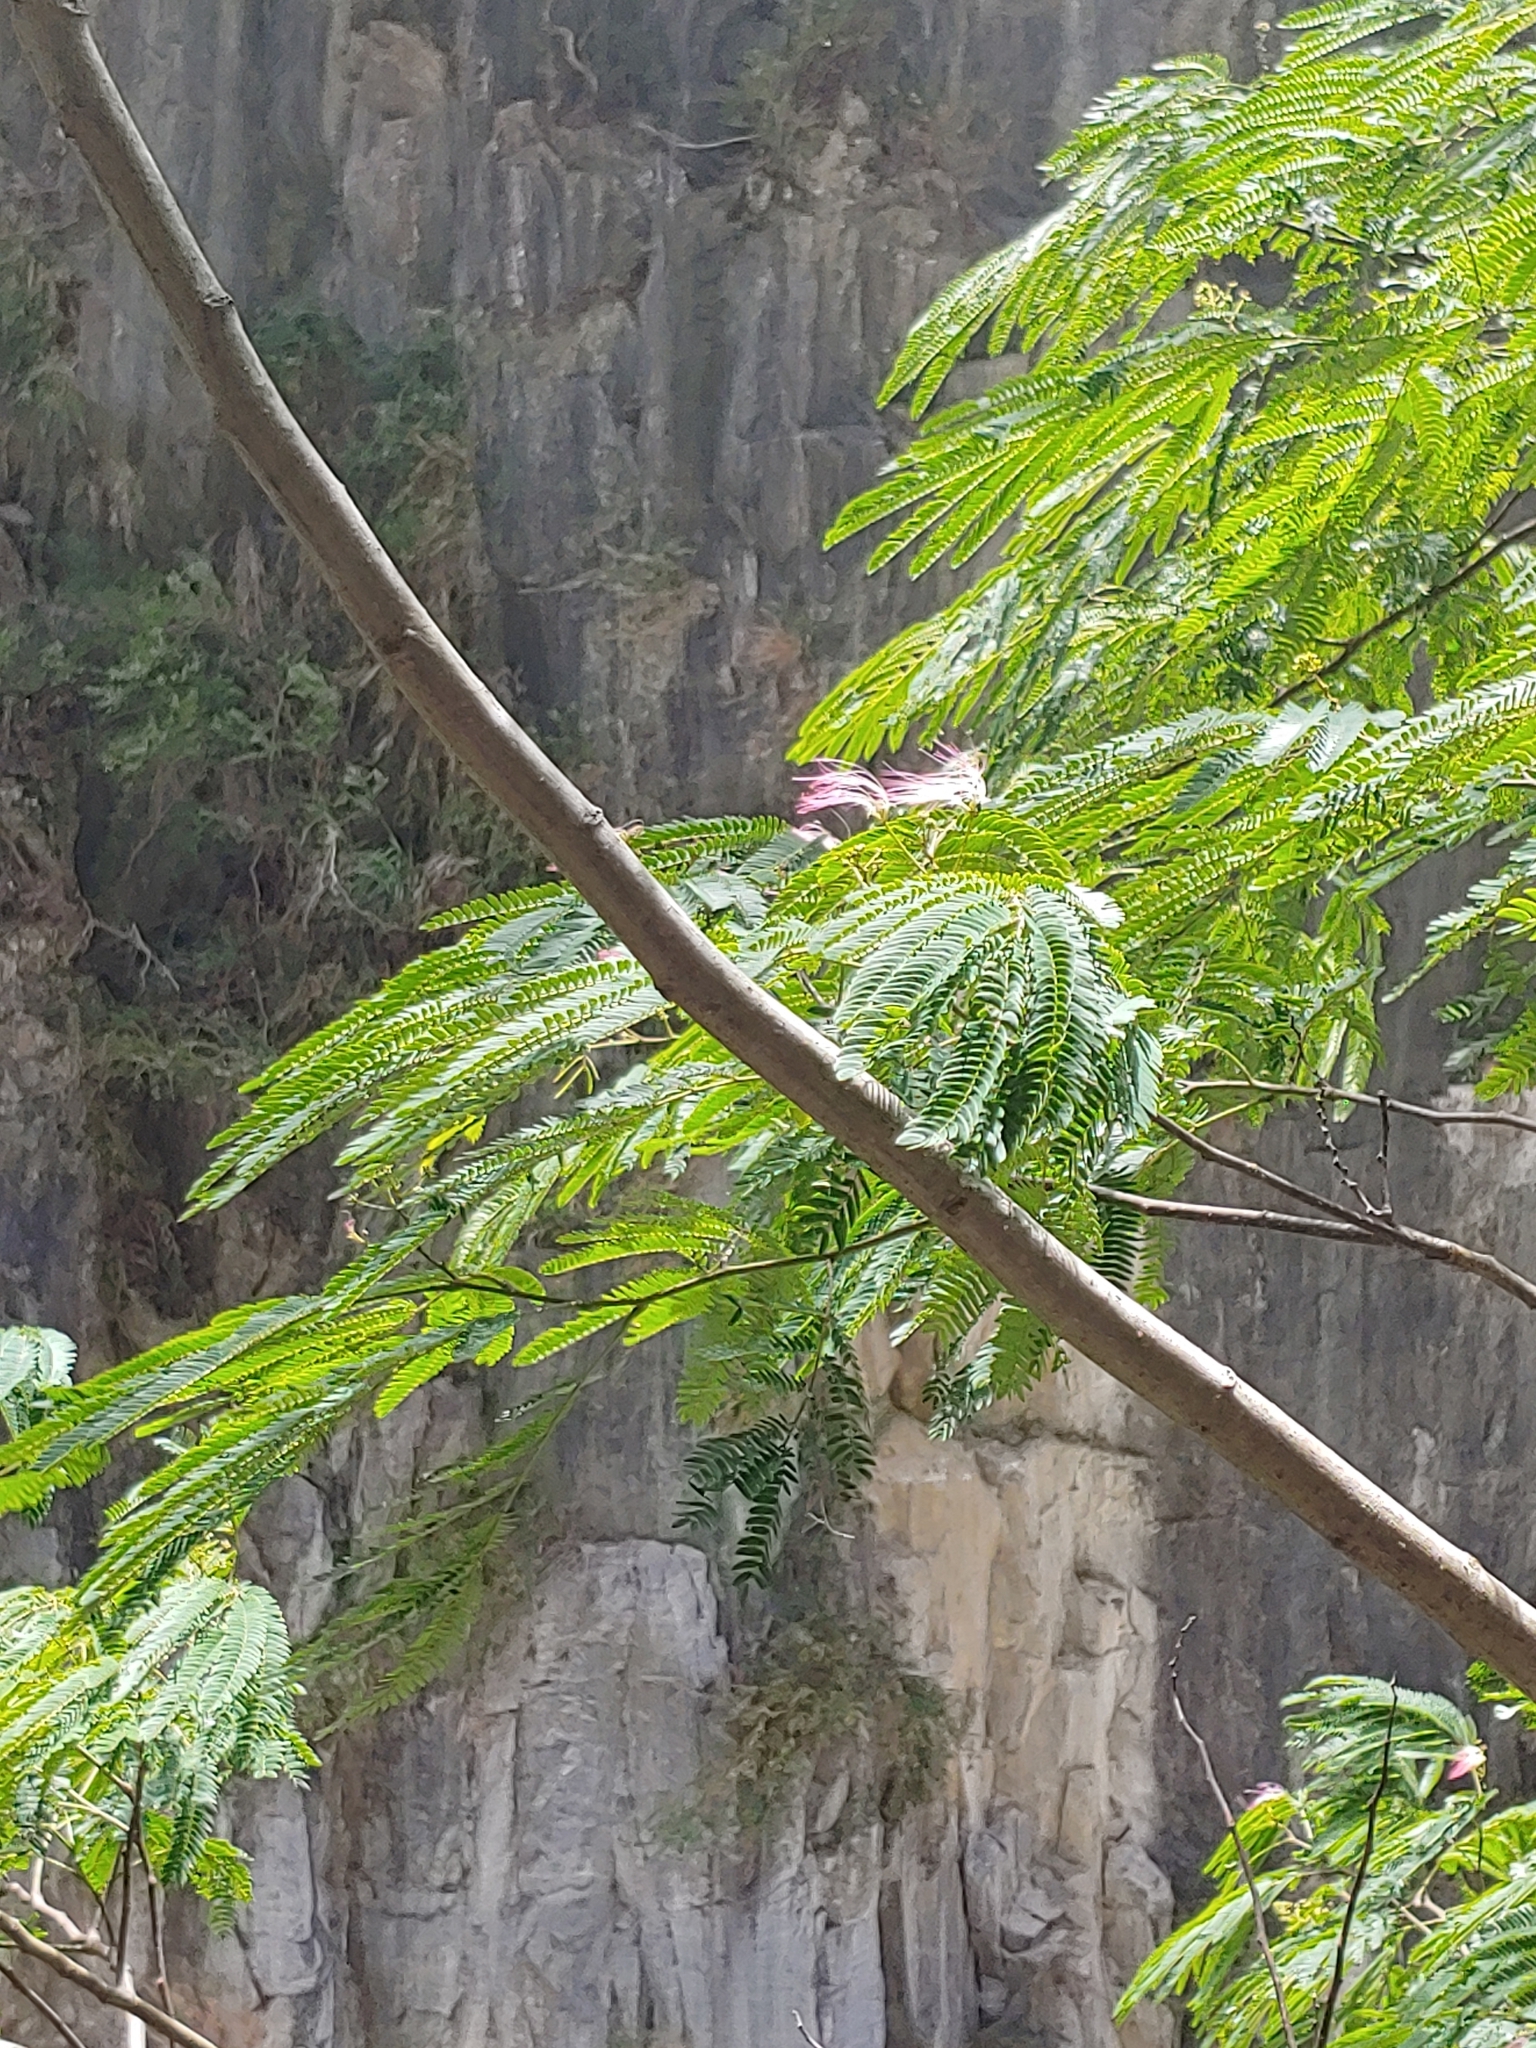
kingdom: Plantae
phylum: Tracheophyta
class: Magnoliopsida
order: Fabales
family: Fabaceae
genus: Albizia
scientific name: Albizia julibrissin
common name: Silktree
